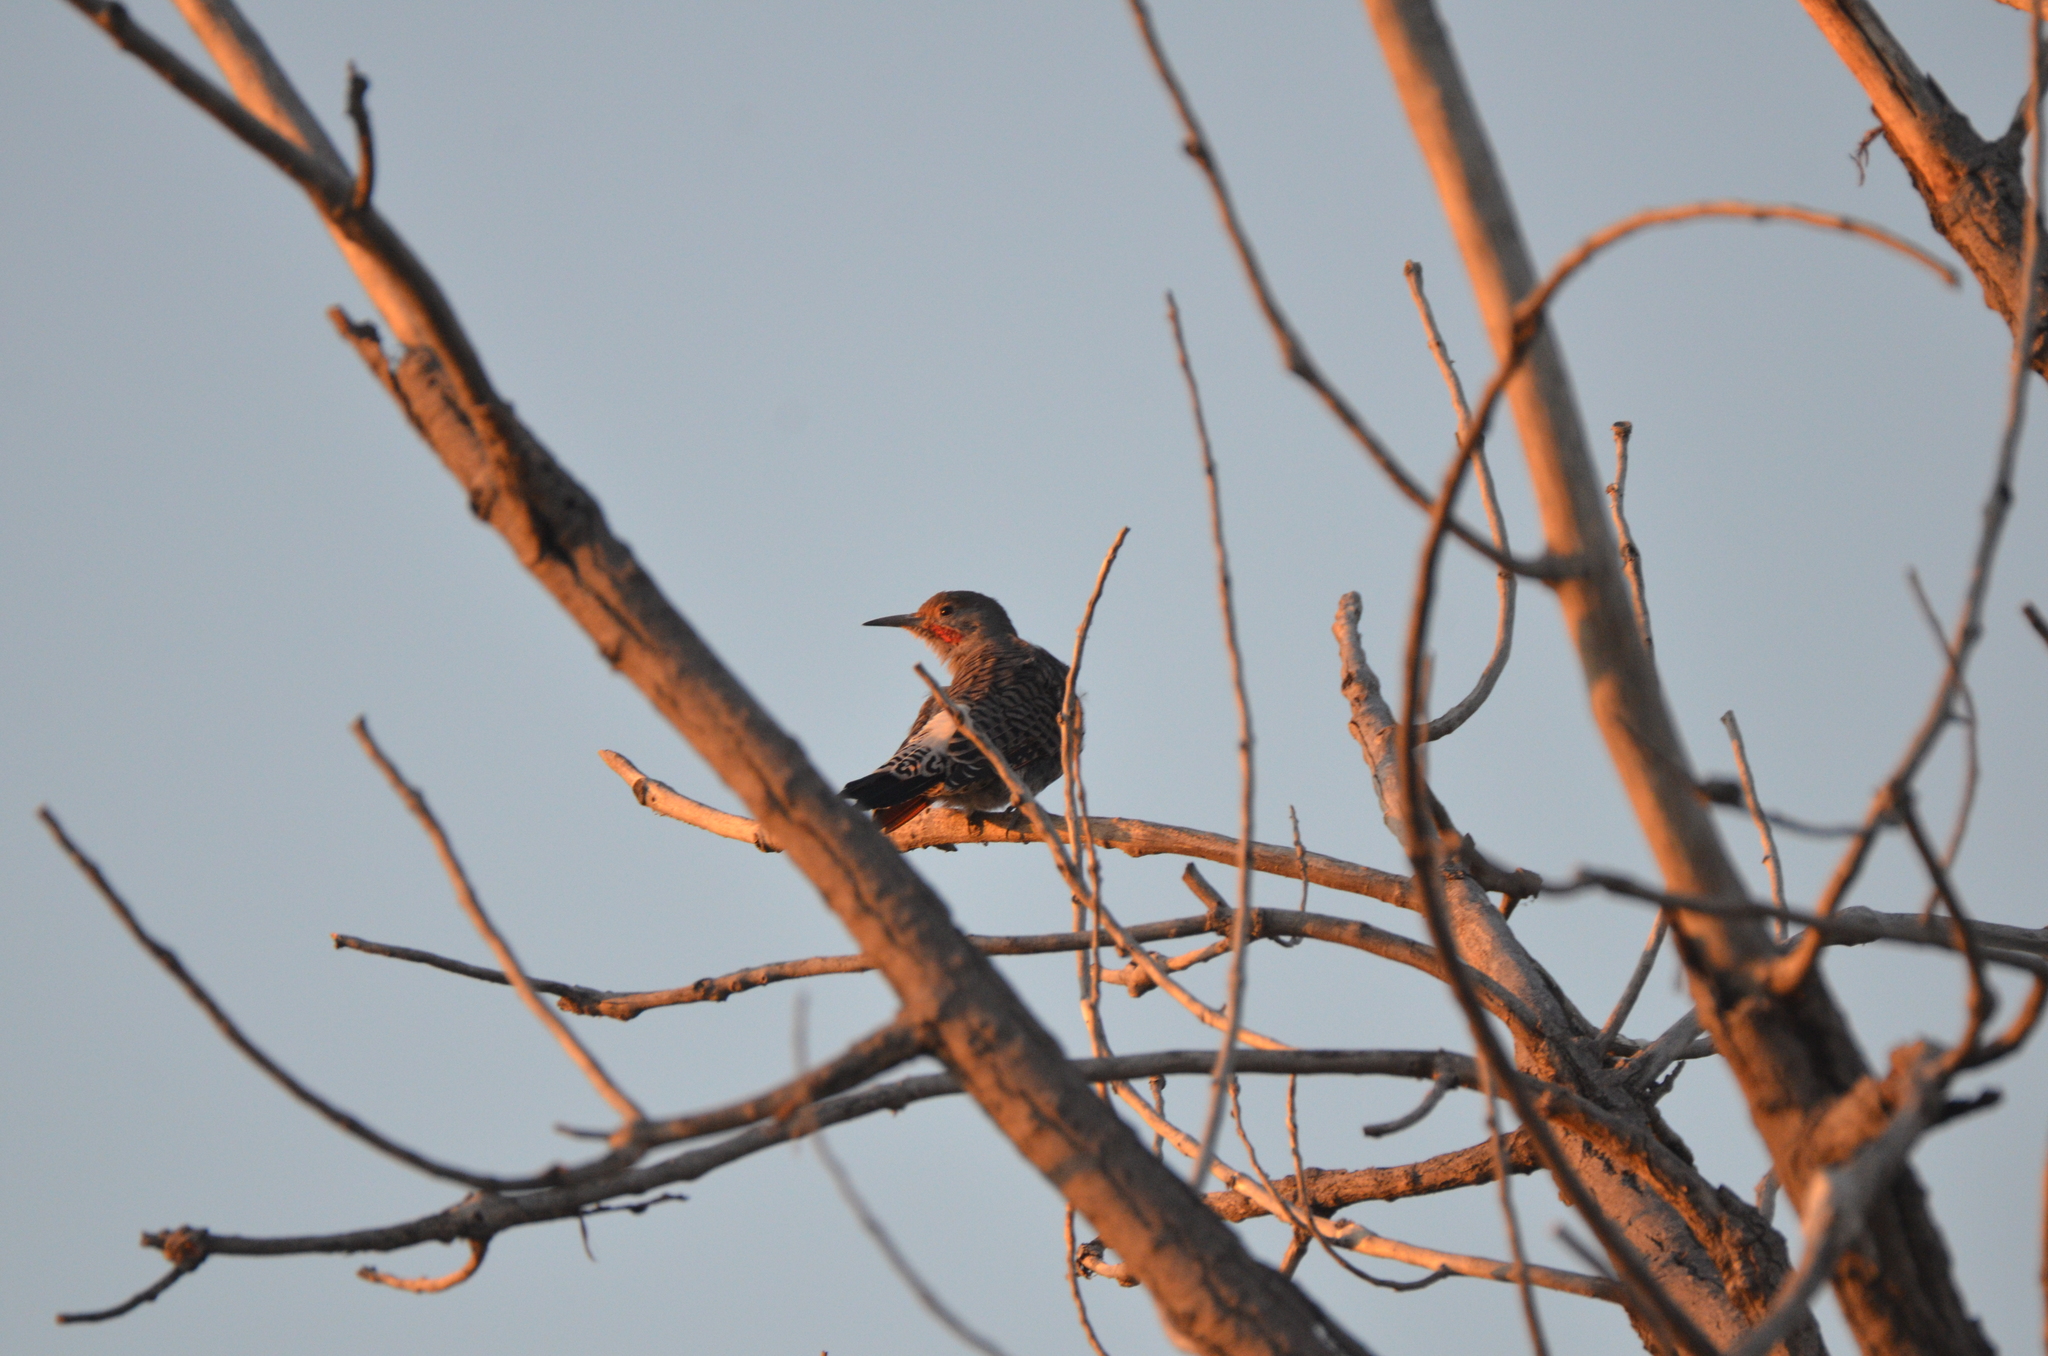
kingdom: Animalia
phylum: Chordata
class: Aves
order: Piciformes
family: Picidae
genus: Colaptes
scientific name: Colaptes auratus
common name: Northern flicker
